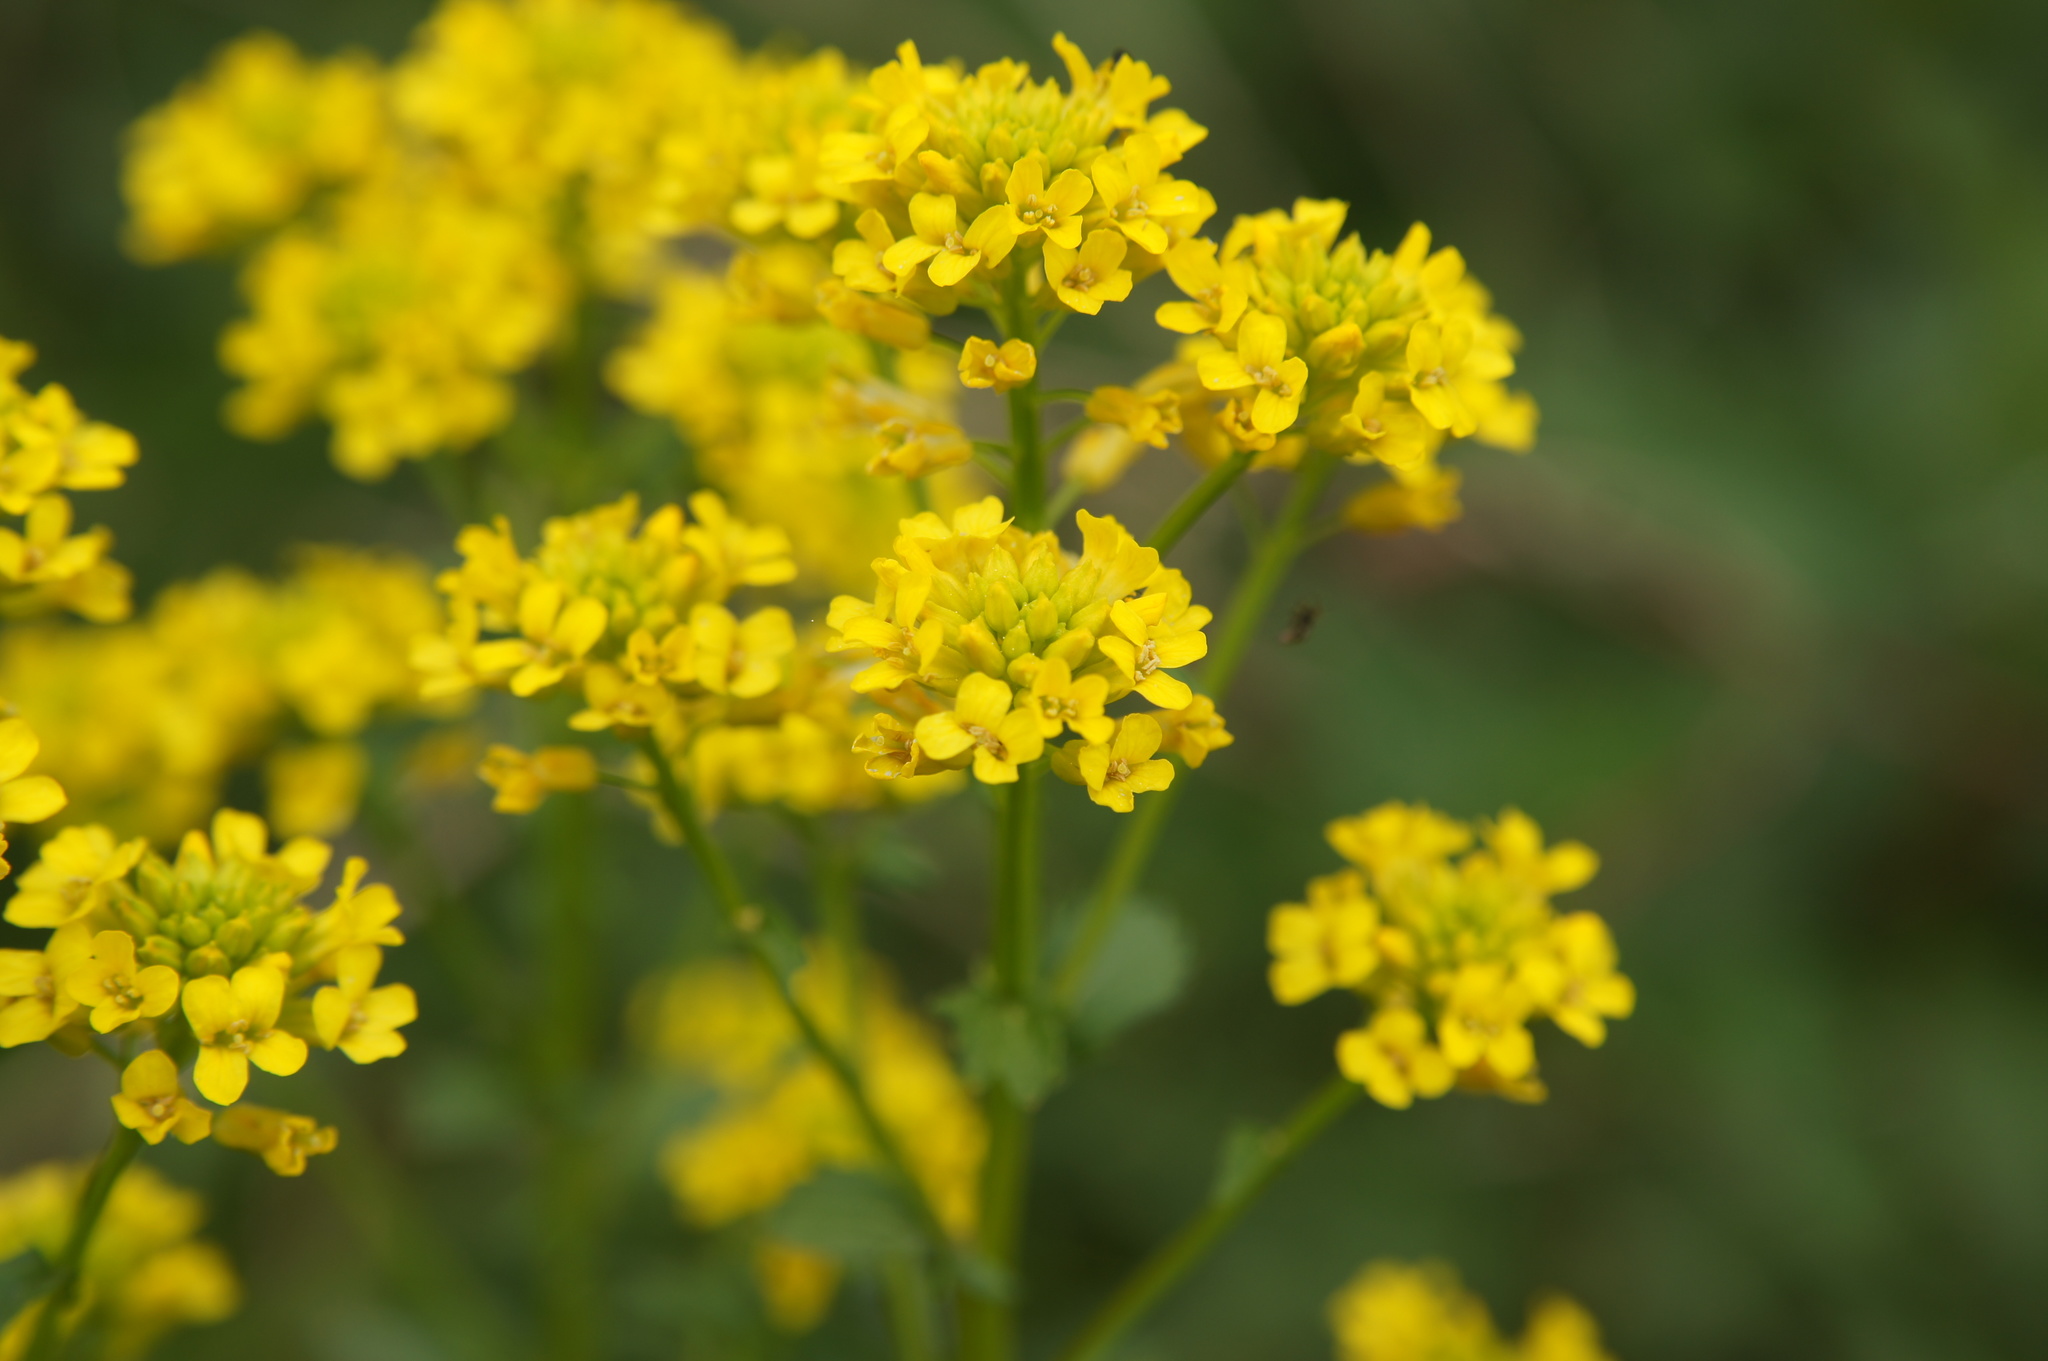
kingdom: Plantae
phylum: Tracheophyta
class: Magnoliopsida
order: Brassicales
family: Brassicaceae
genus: Barbarea
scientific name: Barbarea vulgaris
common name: Cressy-greens
